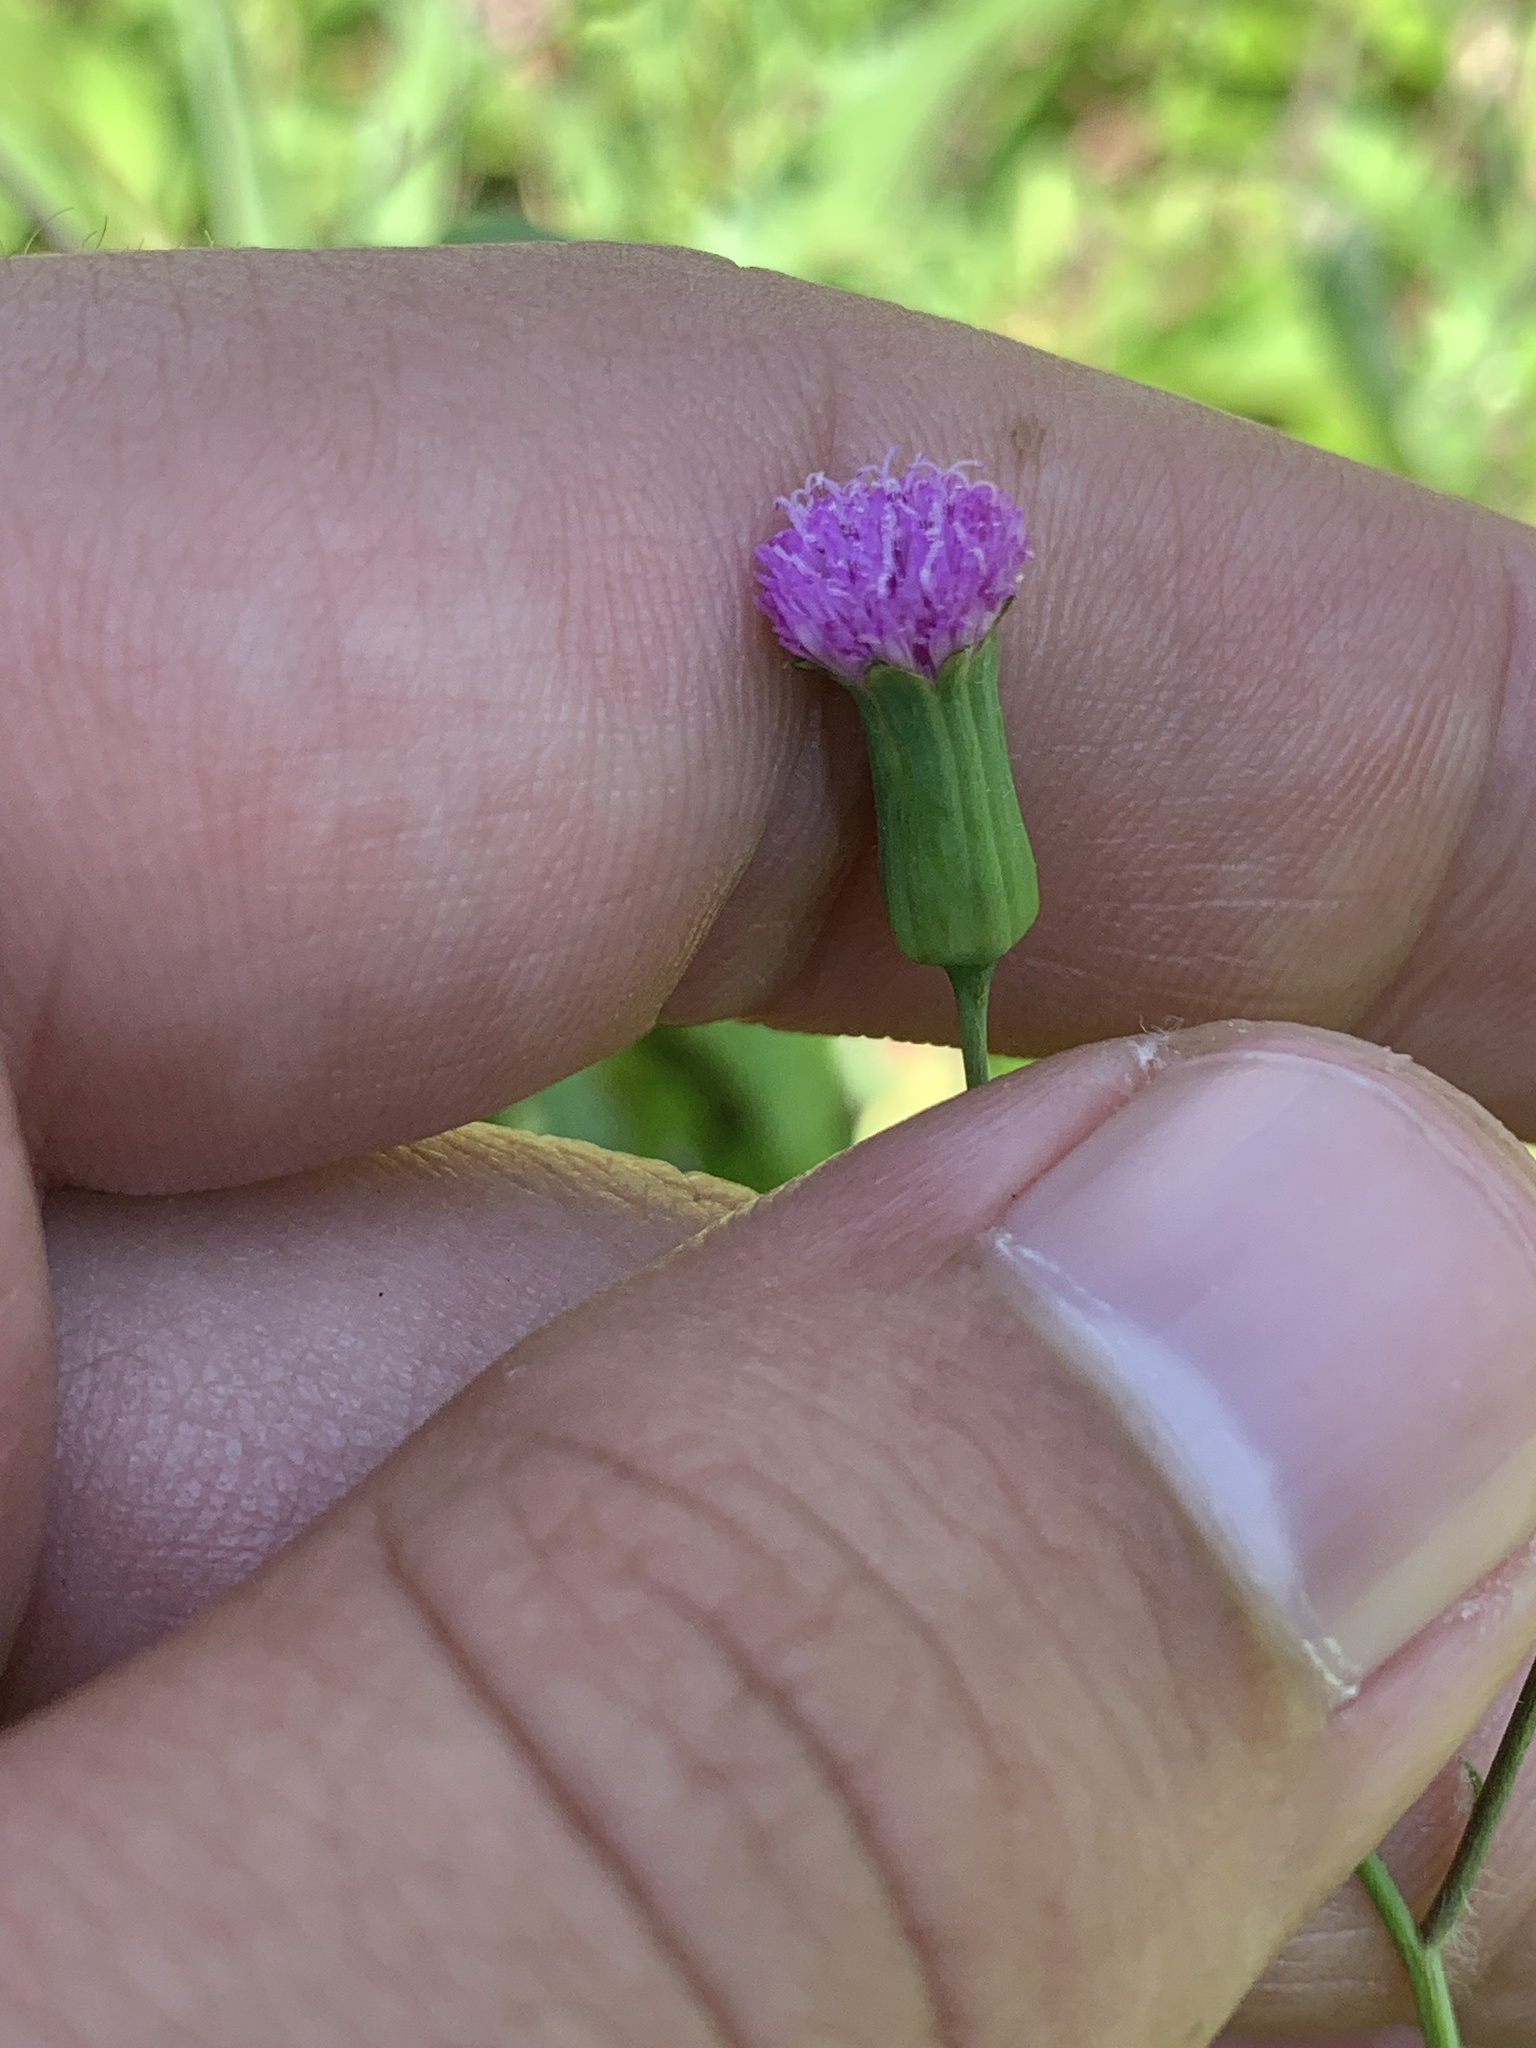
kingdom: Plantae
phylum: Tracheophyta
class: Magnoliopsida
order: Asterales
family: Asteraceae
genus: Emilia
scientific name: Emilia sonchifolia
